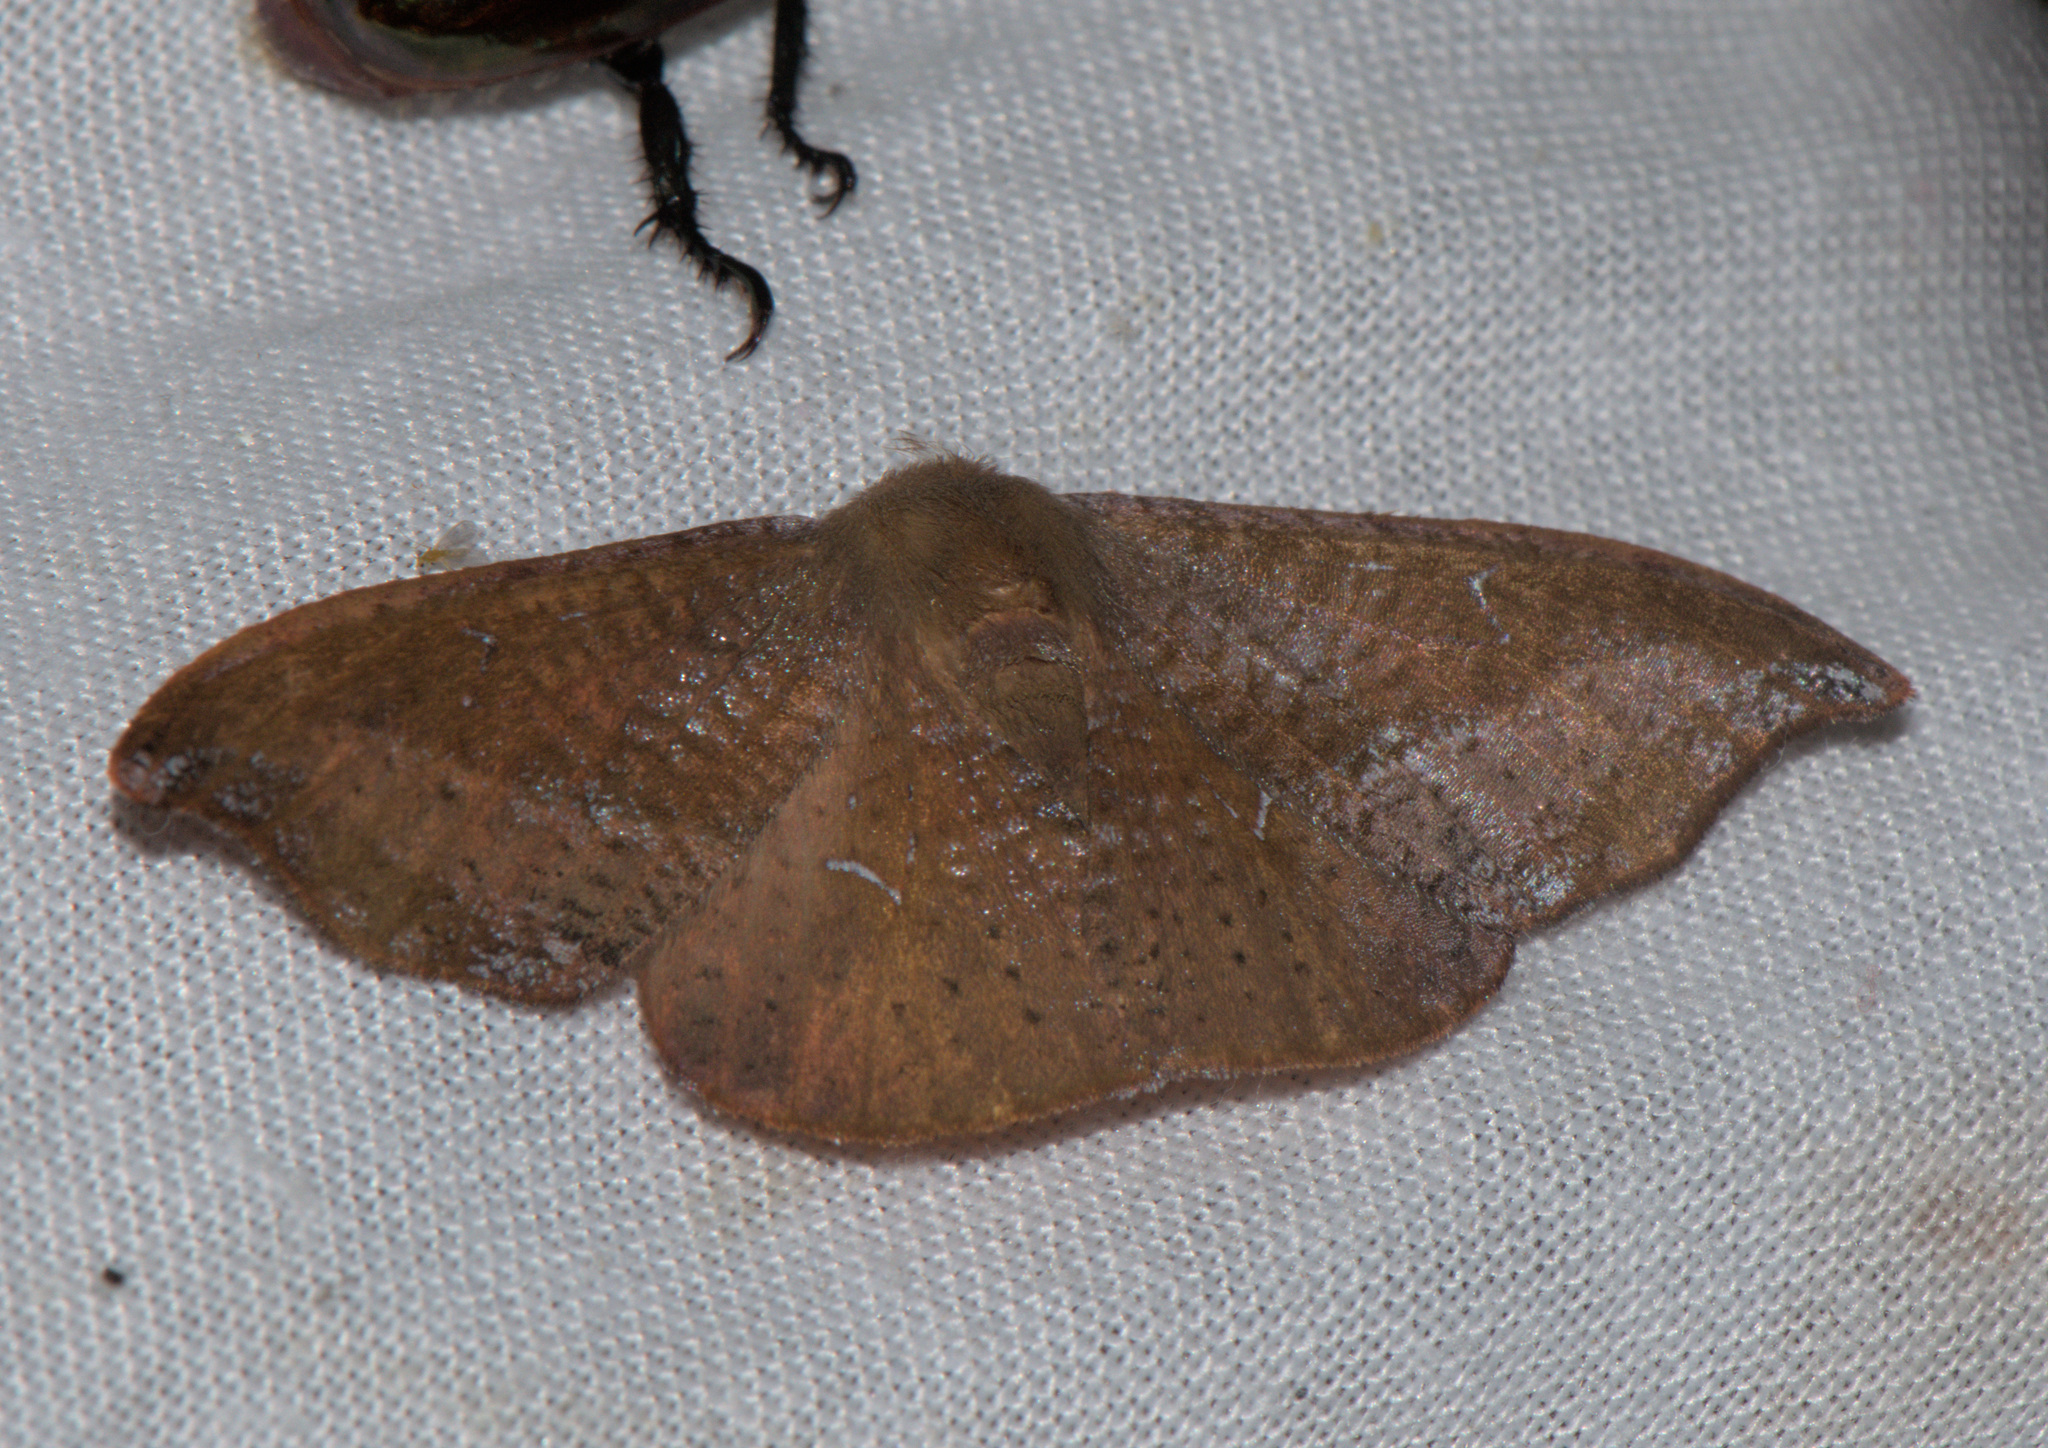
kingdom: Animalia
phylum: Arthropoda
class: Insecta
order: Lepidoptera
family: Drepanidae
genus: Oreta
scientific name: Oreta pavaca
